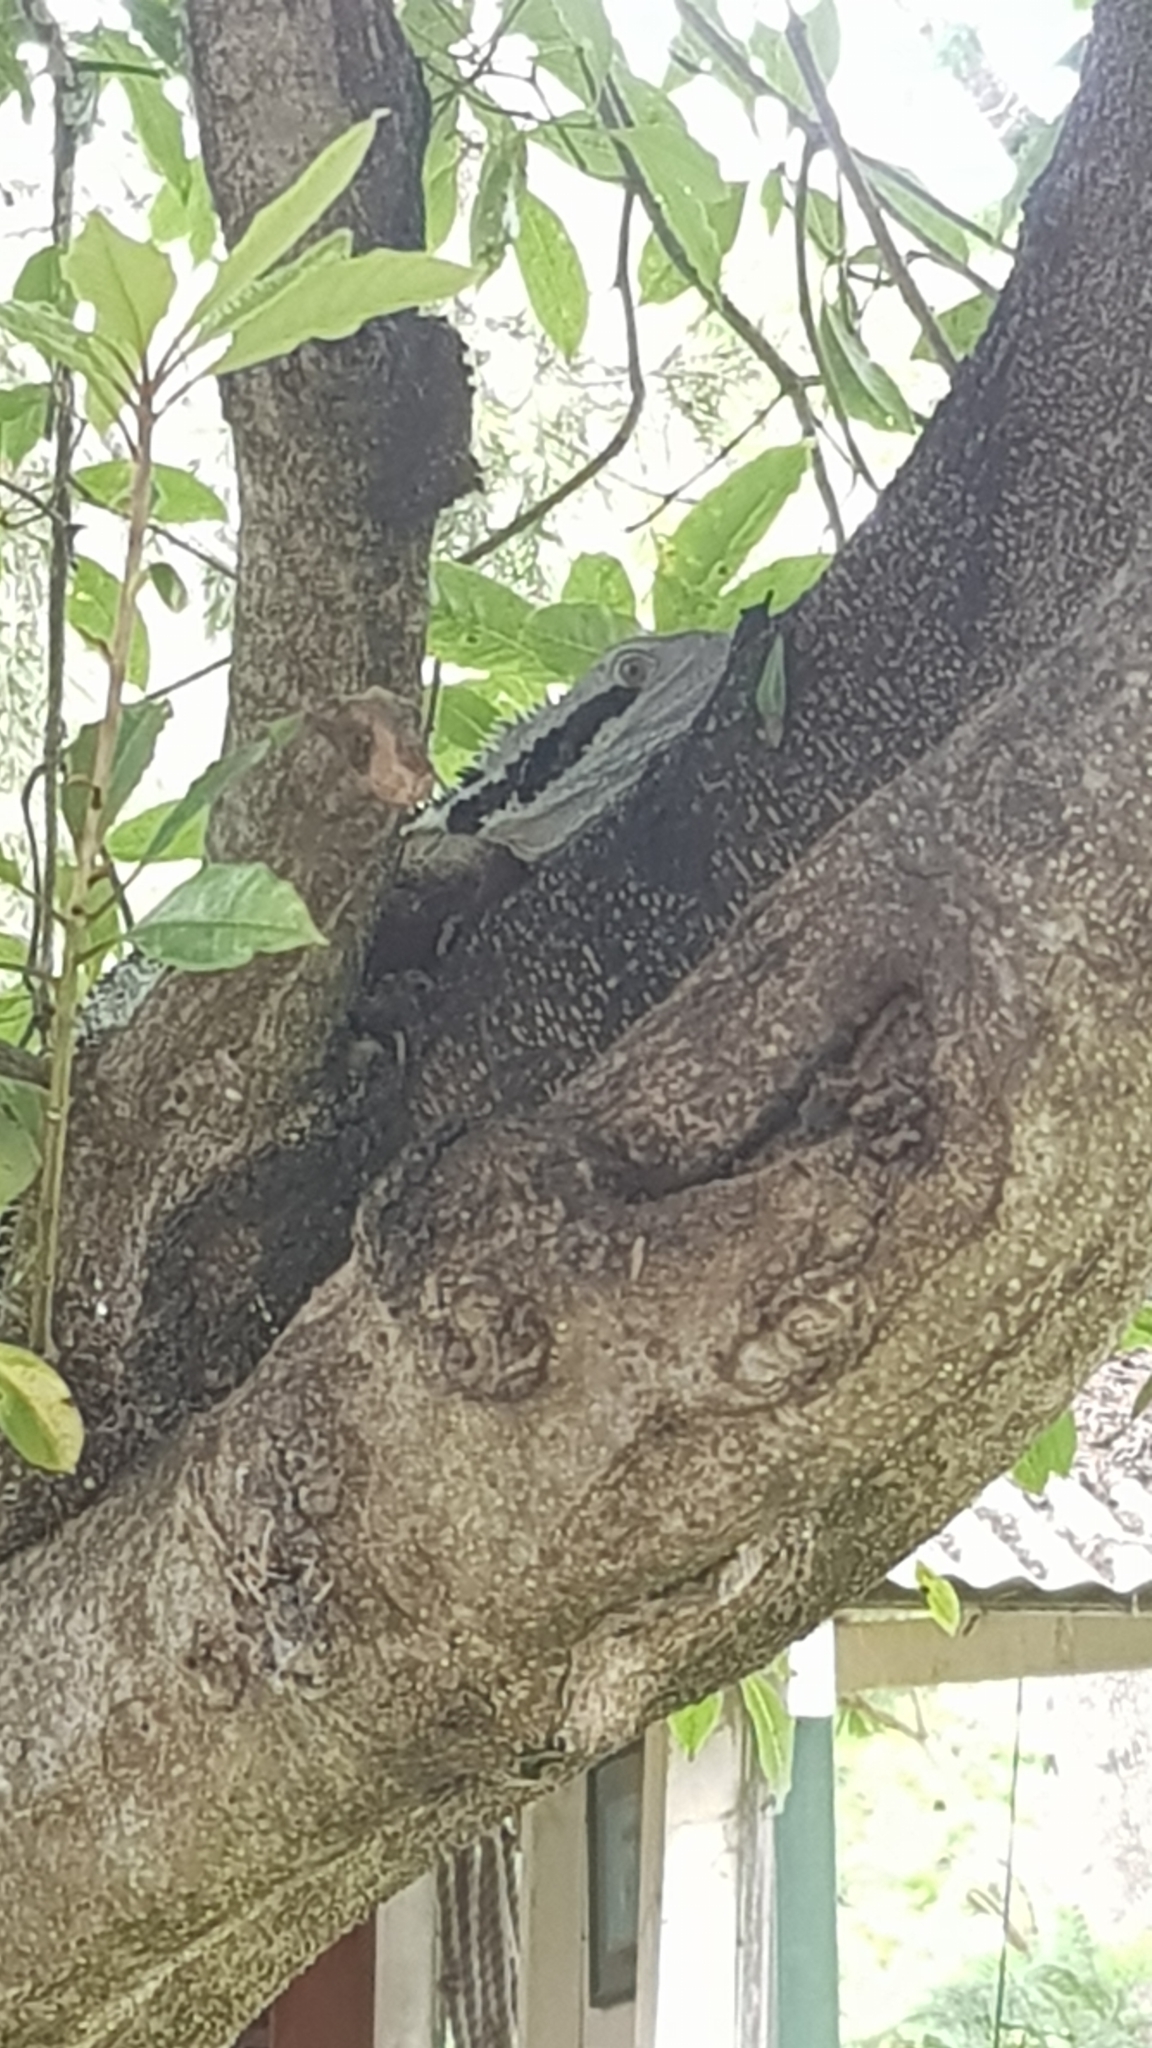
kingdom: Animalia
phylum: Chordata
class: Squamata
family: Agamidae
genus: Intellagama
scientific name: Intellagama lesueurii
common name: Eastern water dragon
